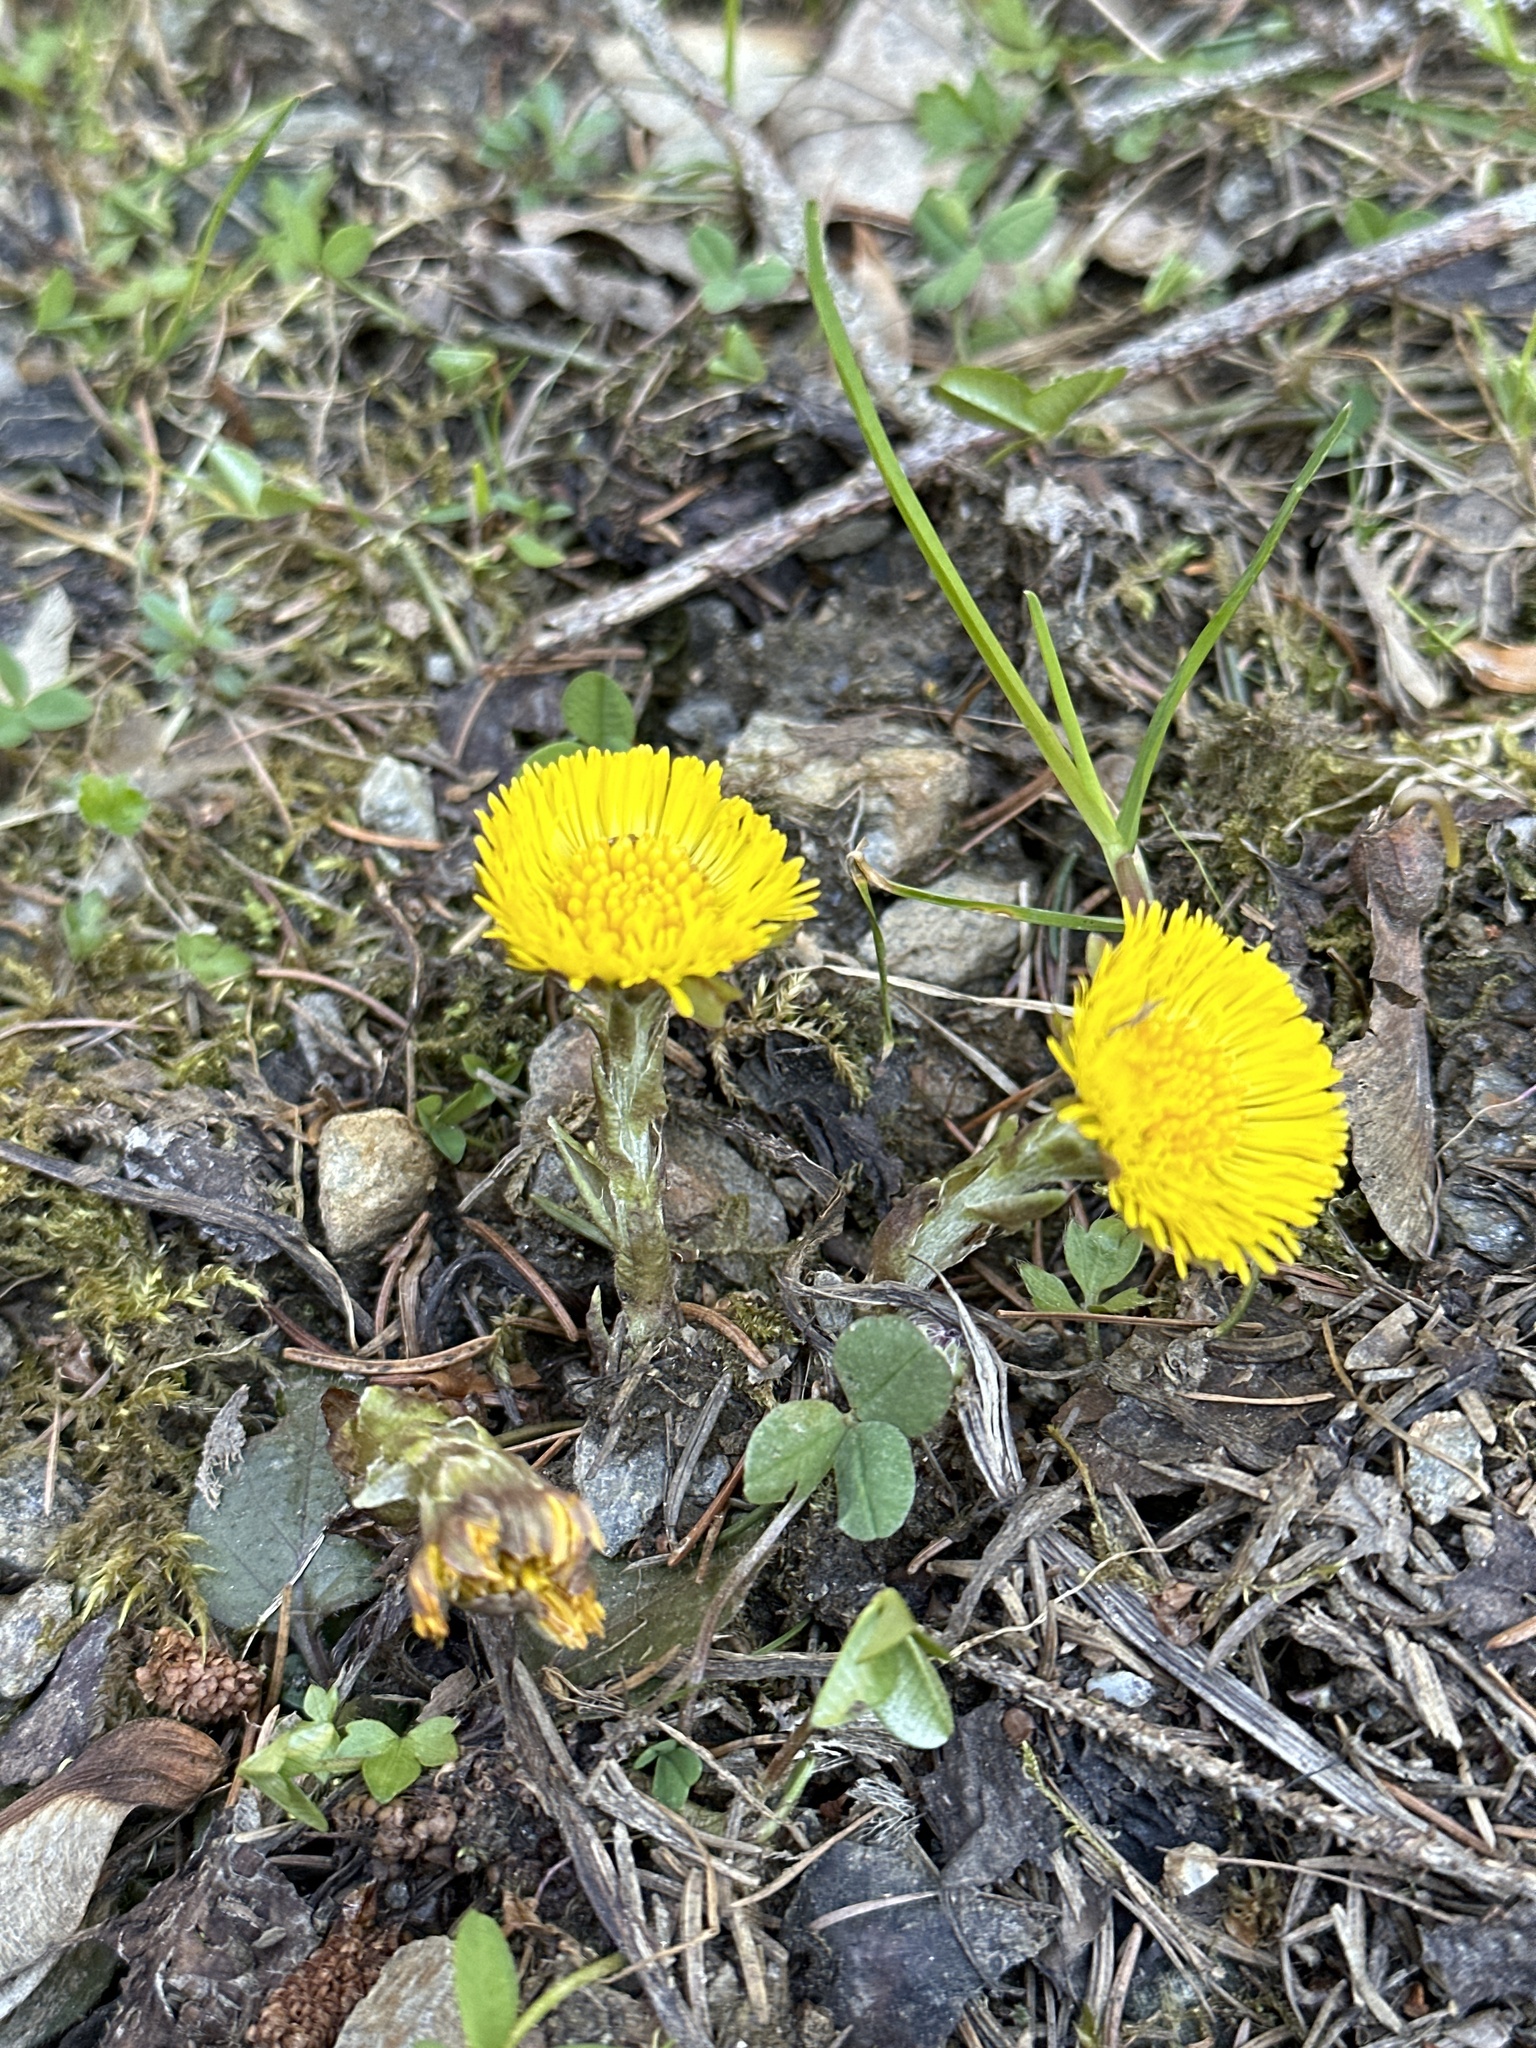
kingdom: Plantae
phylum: Tracheophyta
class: Magnoliopsida
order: Asterales
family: Asteraceae
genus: Tussilago
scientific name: Tussilago farfara
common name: Coltsfoot
